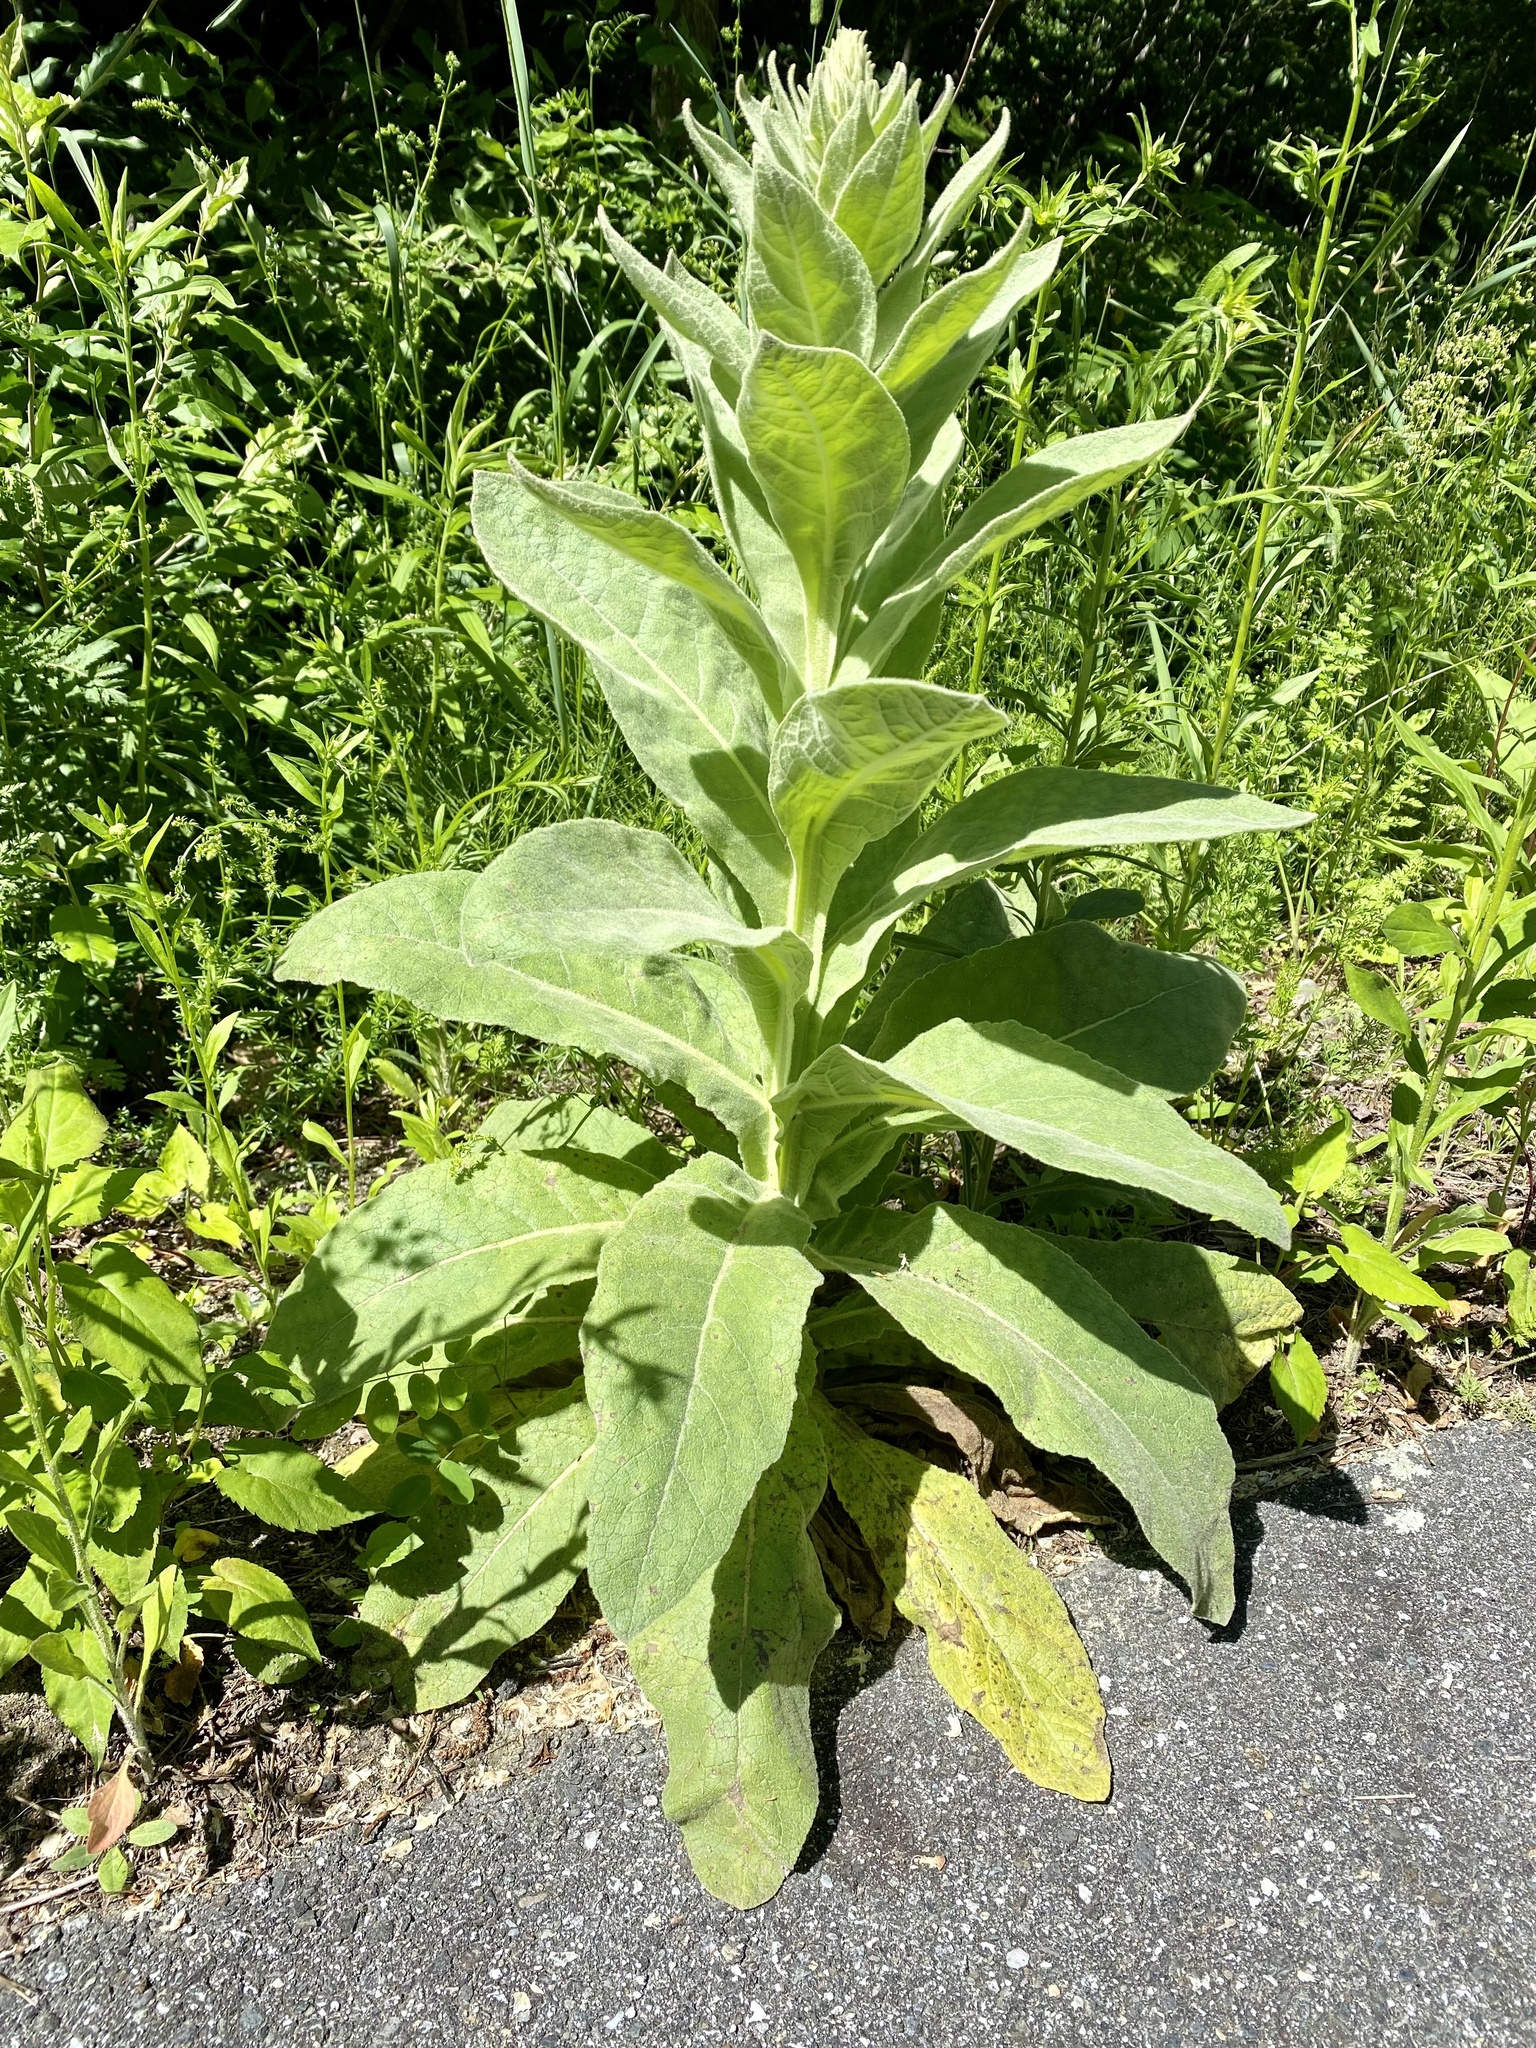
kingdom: Plantae
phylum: Tracheophyta
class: Magnoliopsida
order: Lamiales
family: Scrophulariaceae
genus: Verbascum
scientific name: Verbascum thapsus
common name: Common mullein
